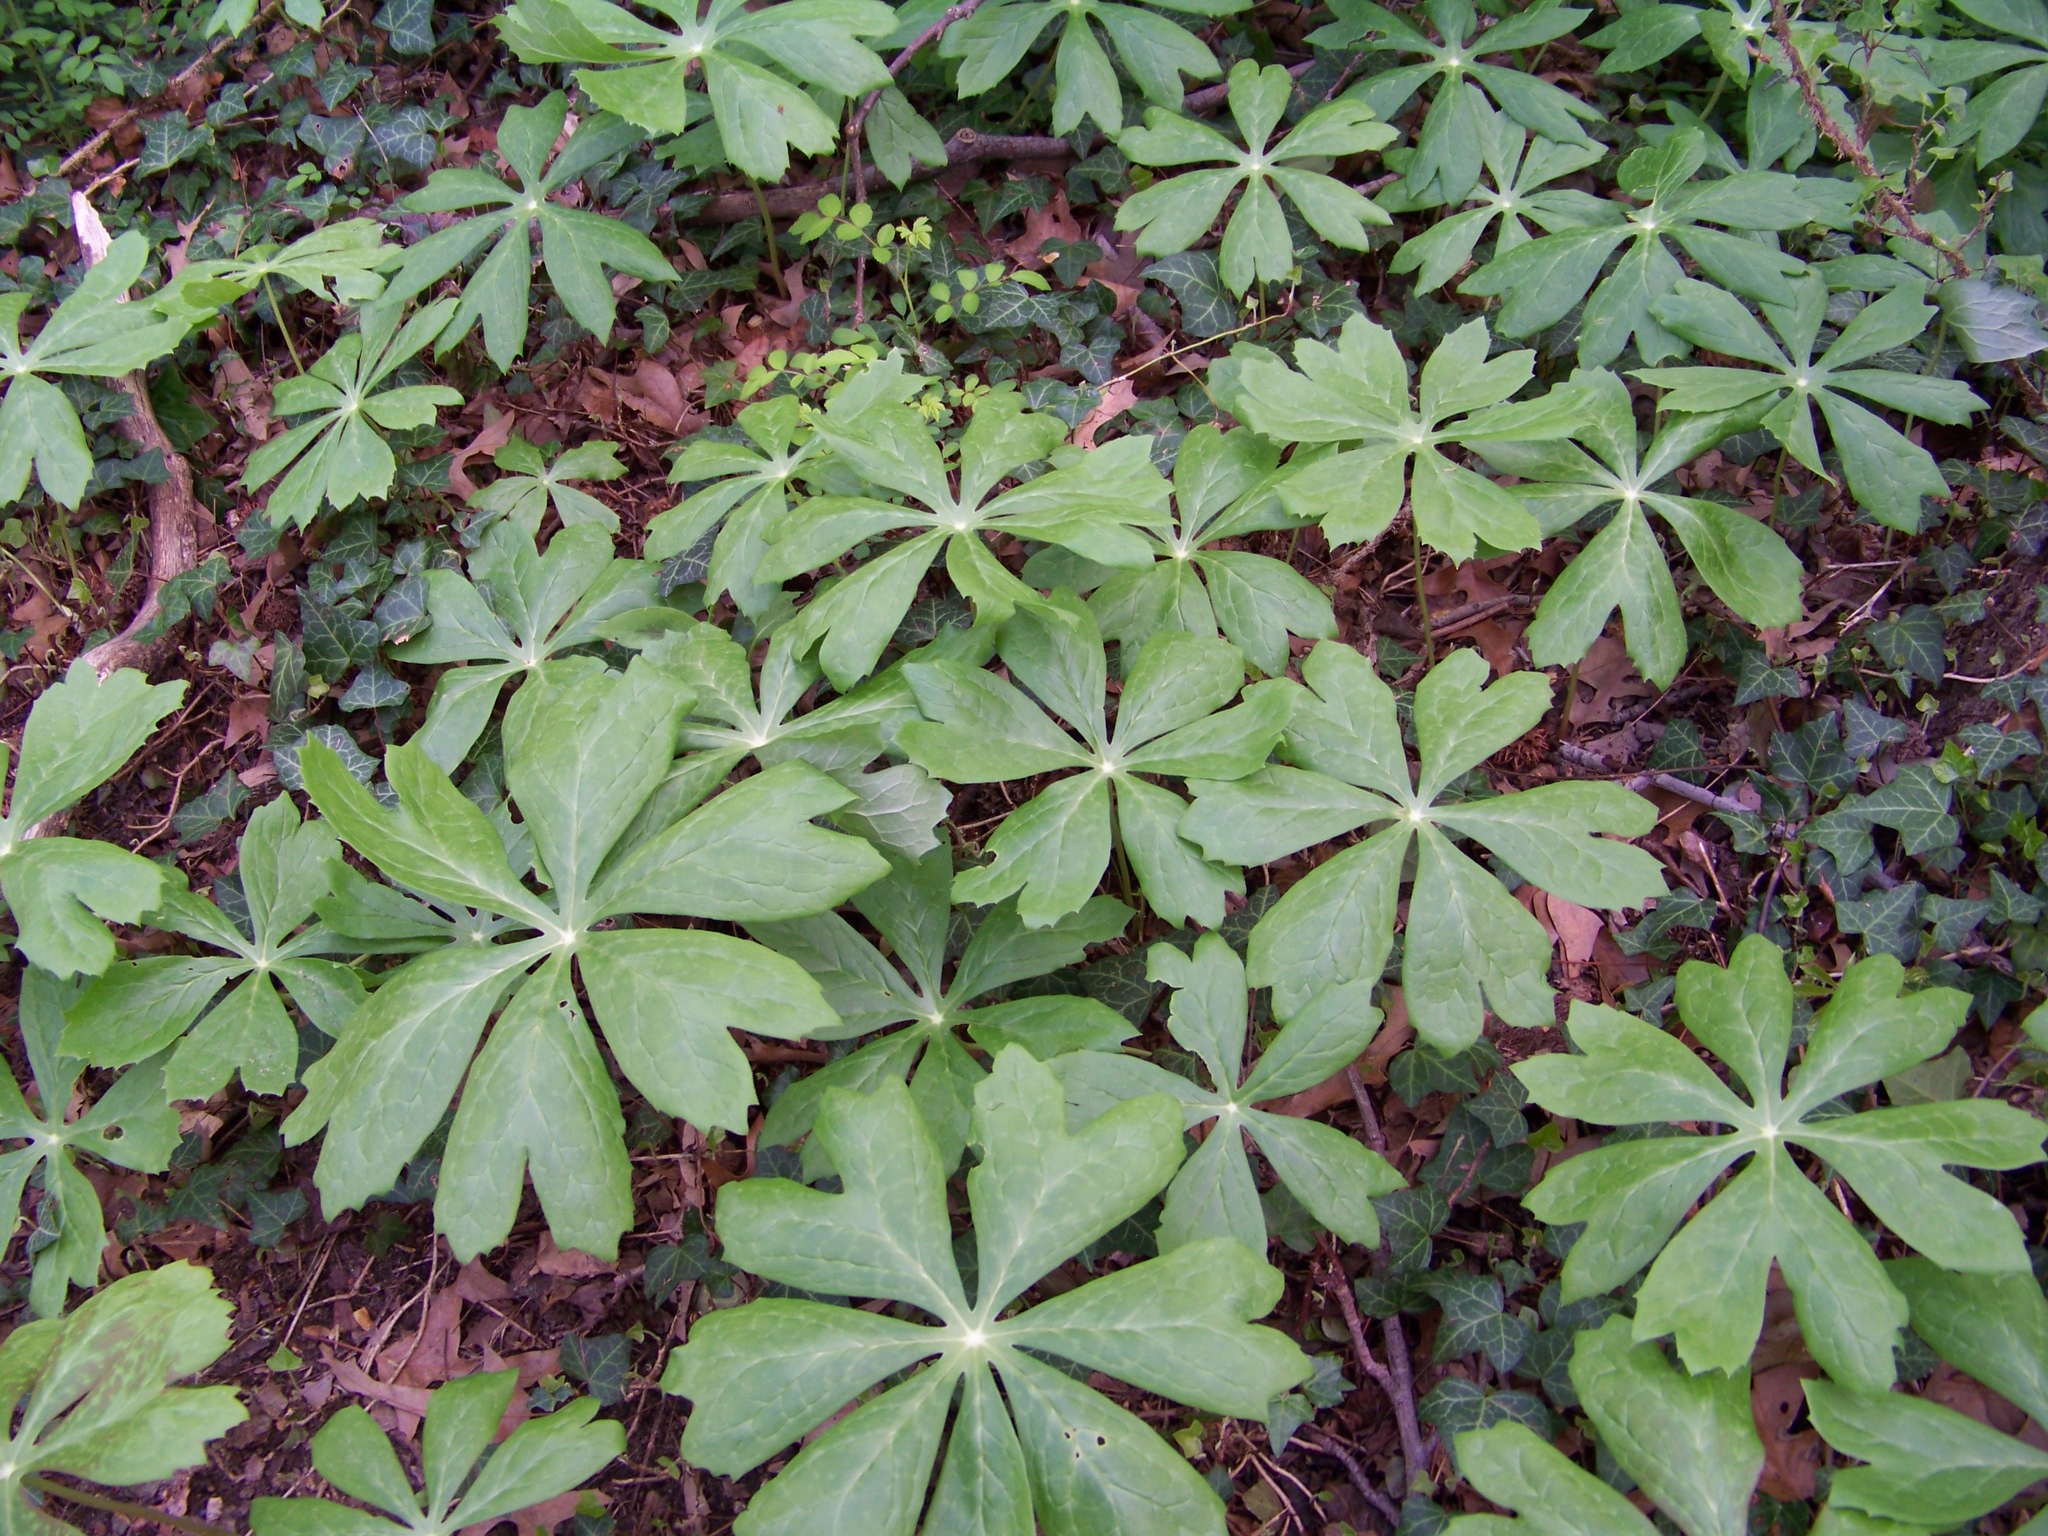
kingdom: Plantae
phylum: Tracheophyta
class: Magnoliopsida
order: Ranunculales
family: Berberidaceae
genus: Podophyllum
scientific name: Podophyllum peltatum
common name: Wild mandrake
